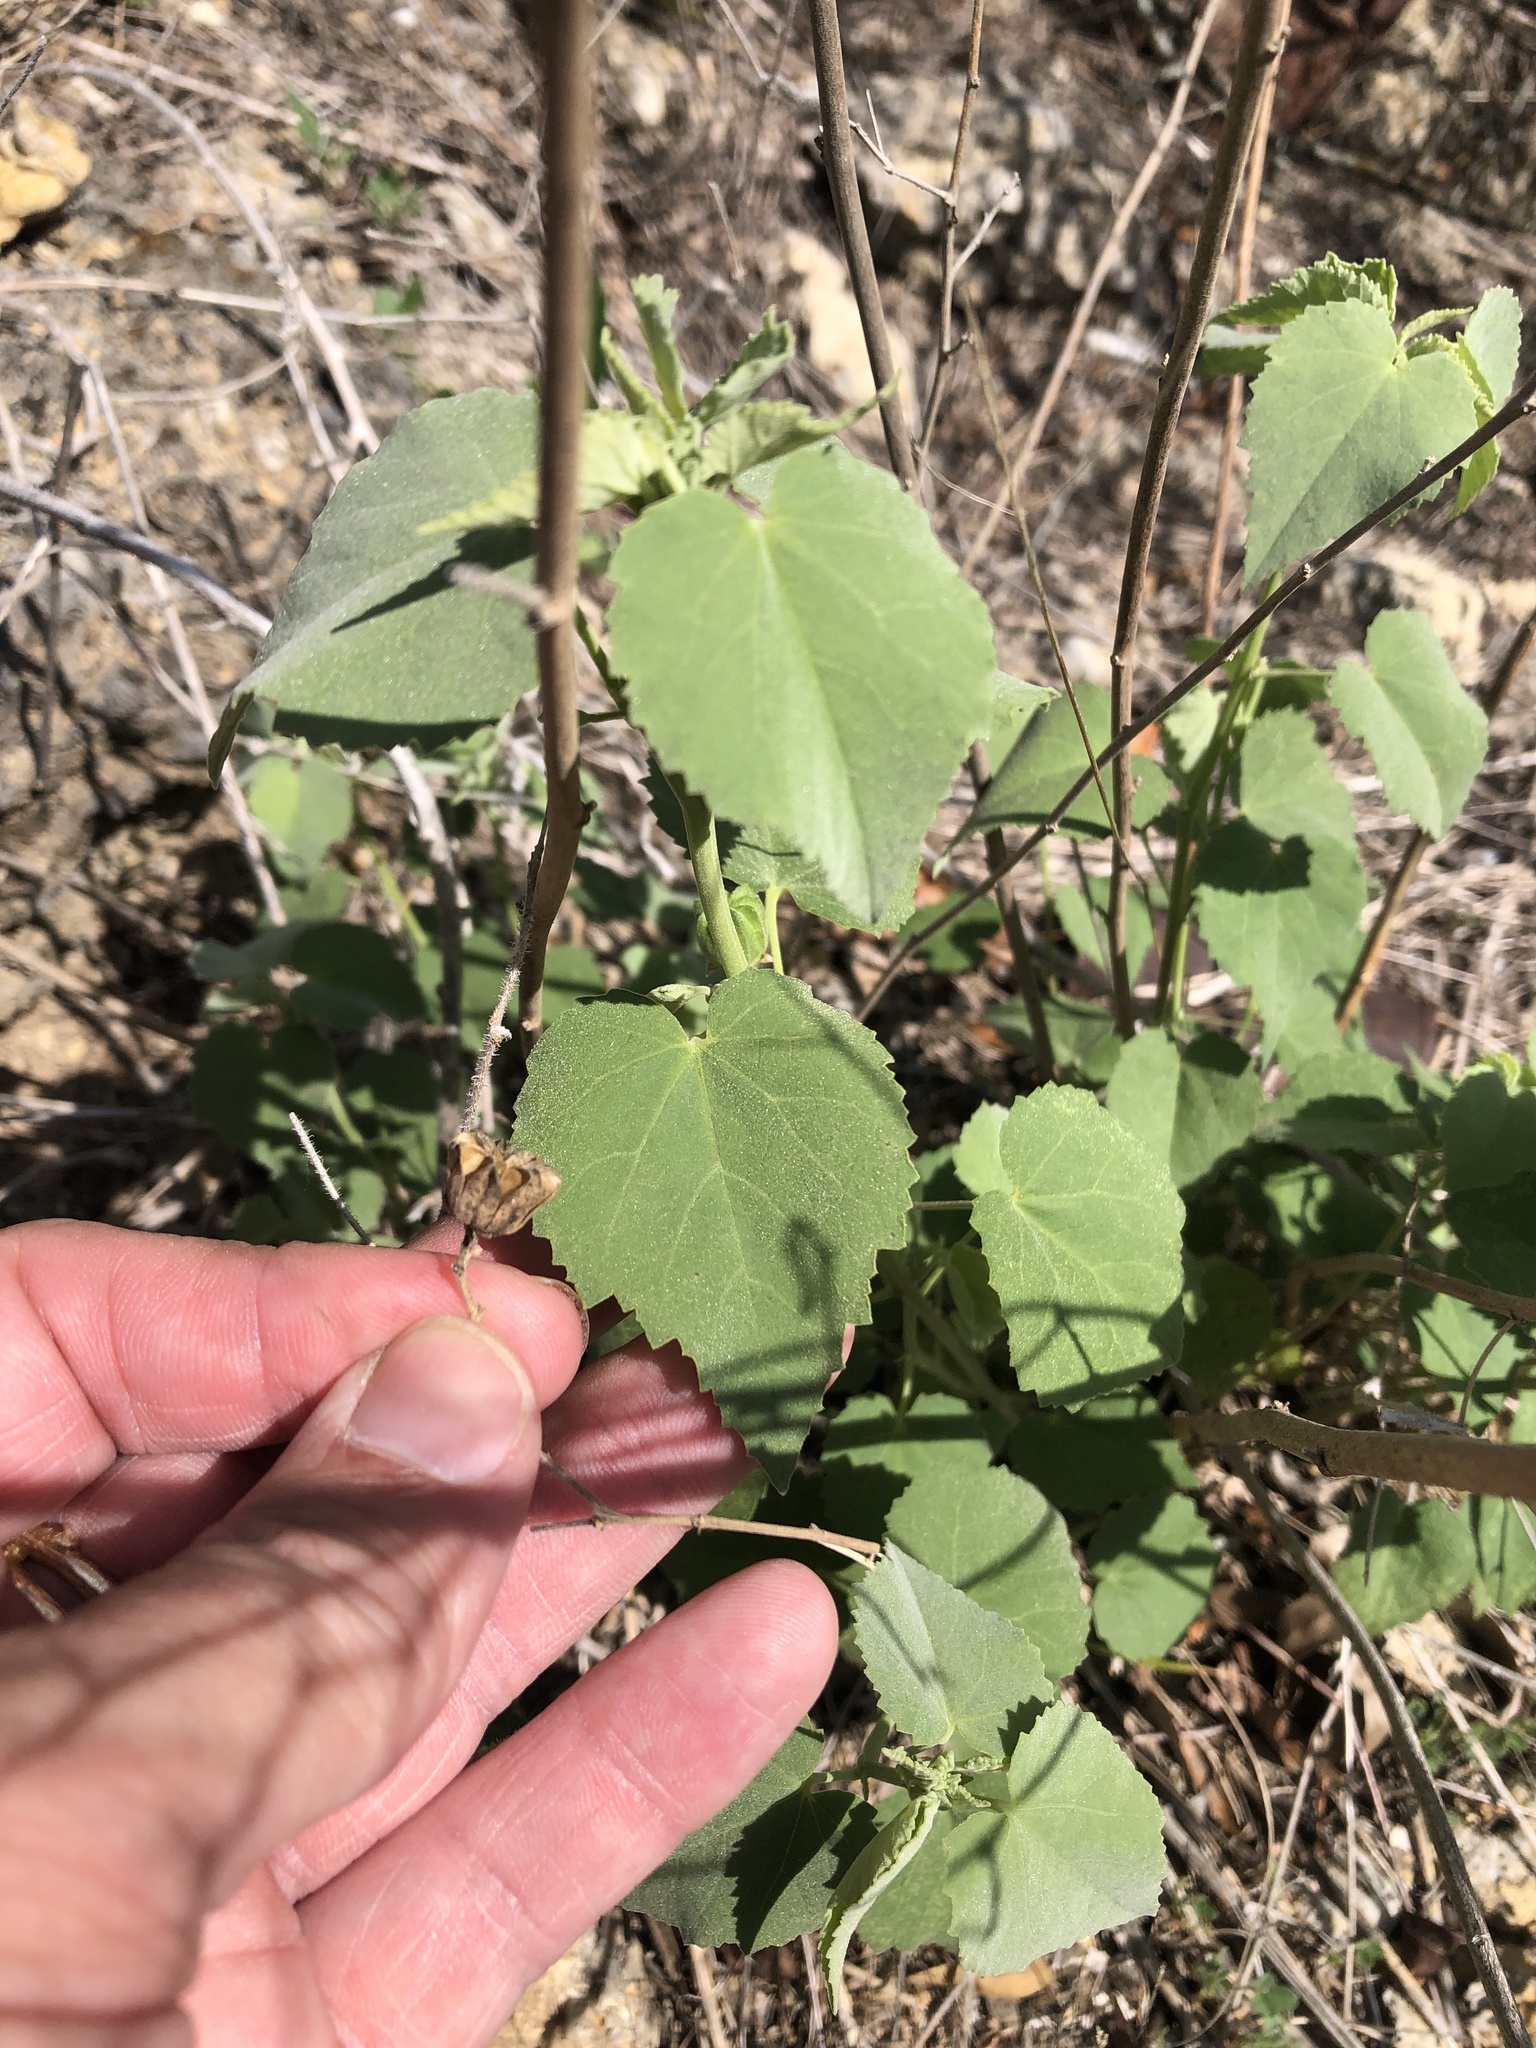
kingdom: Plantae
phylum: Tracheophyta
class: Magnoliopsida
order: Malvales
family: Malvaceae
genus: Abutilon
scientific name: Abutilon fruticosum
